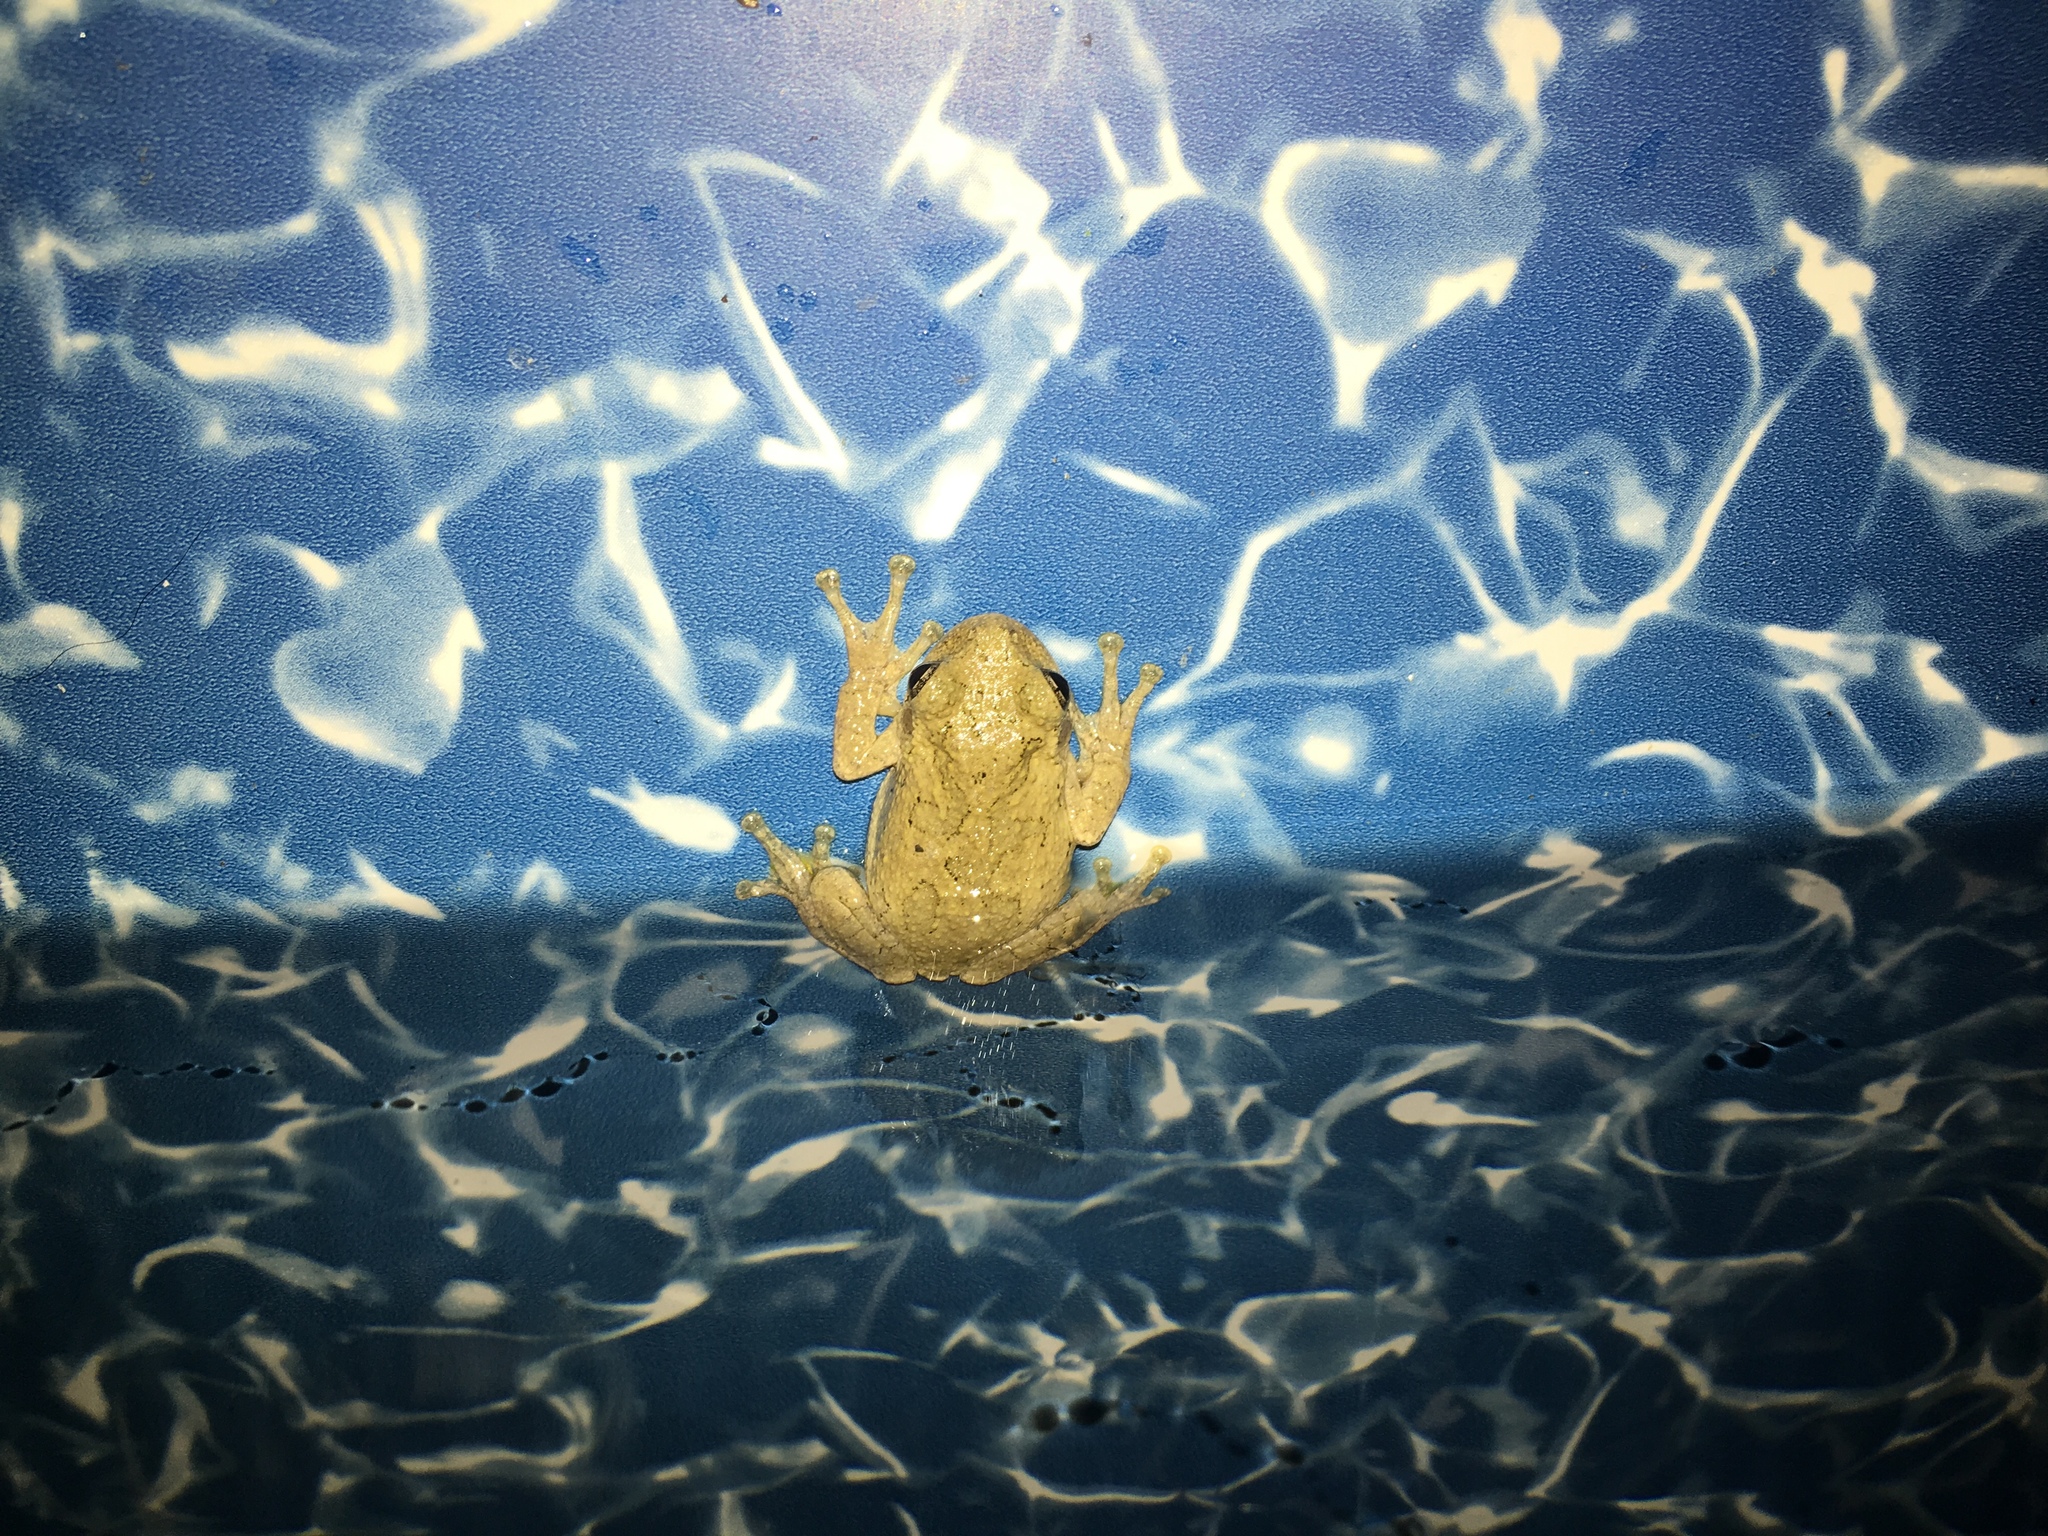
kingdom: Animalia
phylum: Chordata
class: Amphibia
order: Anura
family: Hylidae
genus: Dryophytes
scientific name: Dryophytes chrysoscelis
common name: Cope's gray treefrog
